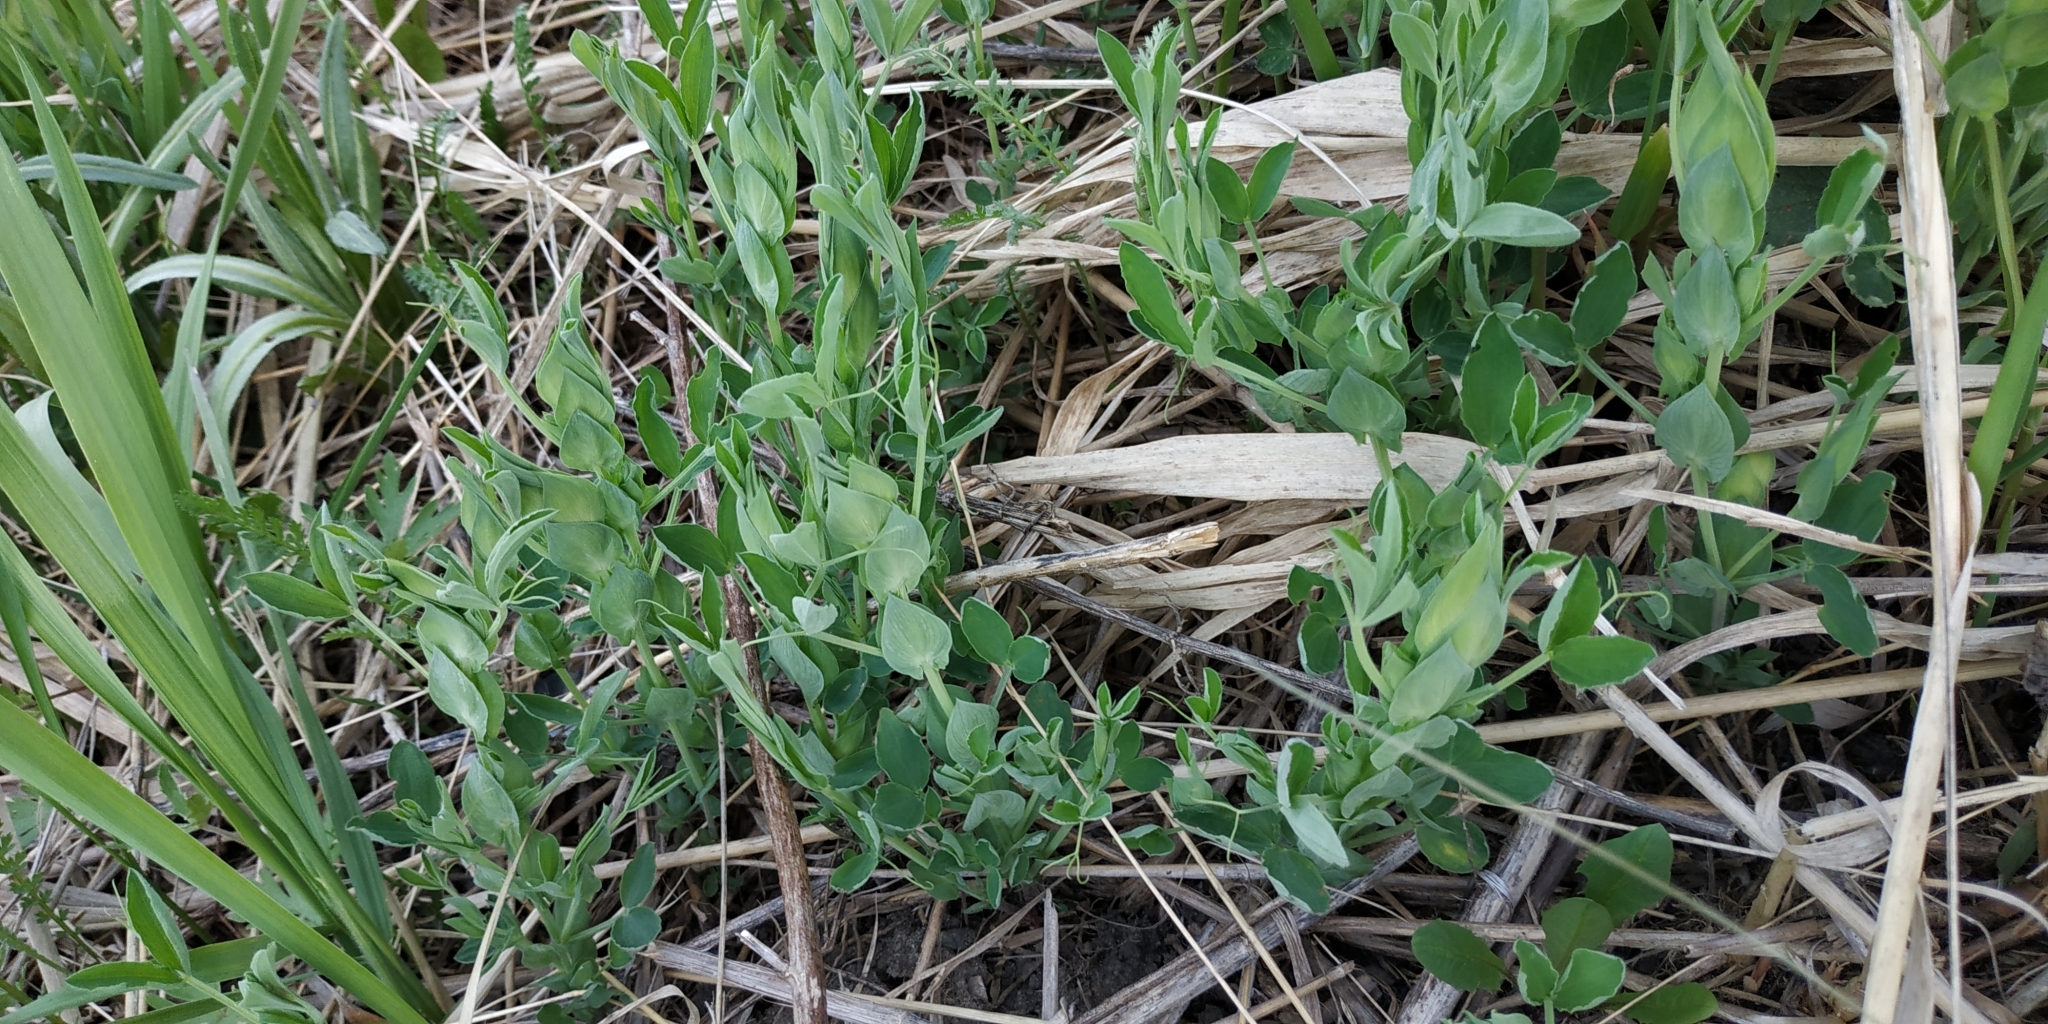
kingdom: Plantae
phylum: Tracheophyta
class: Magnoliopsida
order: Fabales
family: Fabaceae
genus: Lathyrus
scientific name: Lathyrus pratensis
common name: Meadow vetchling
